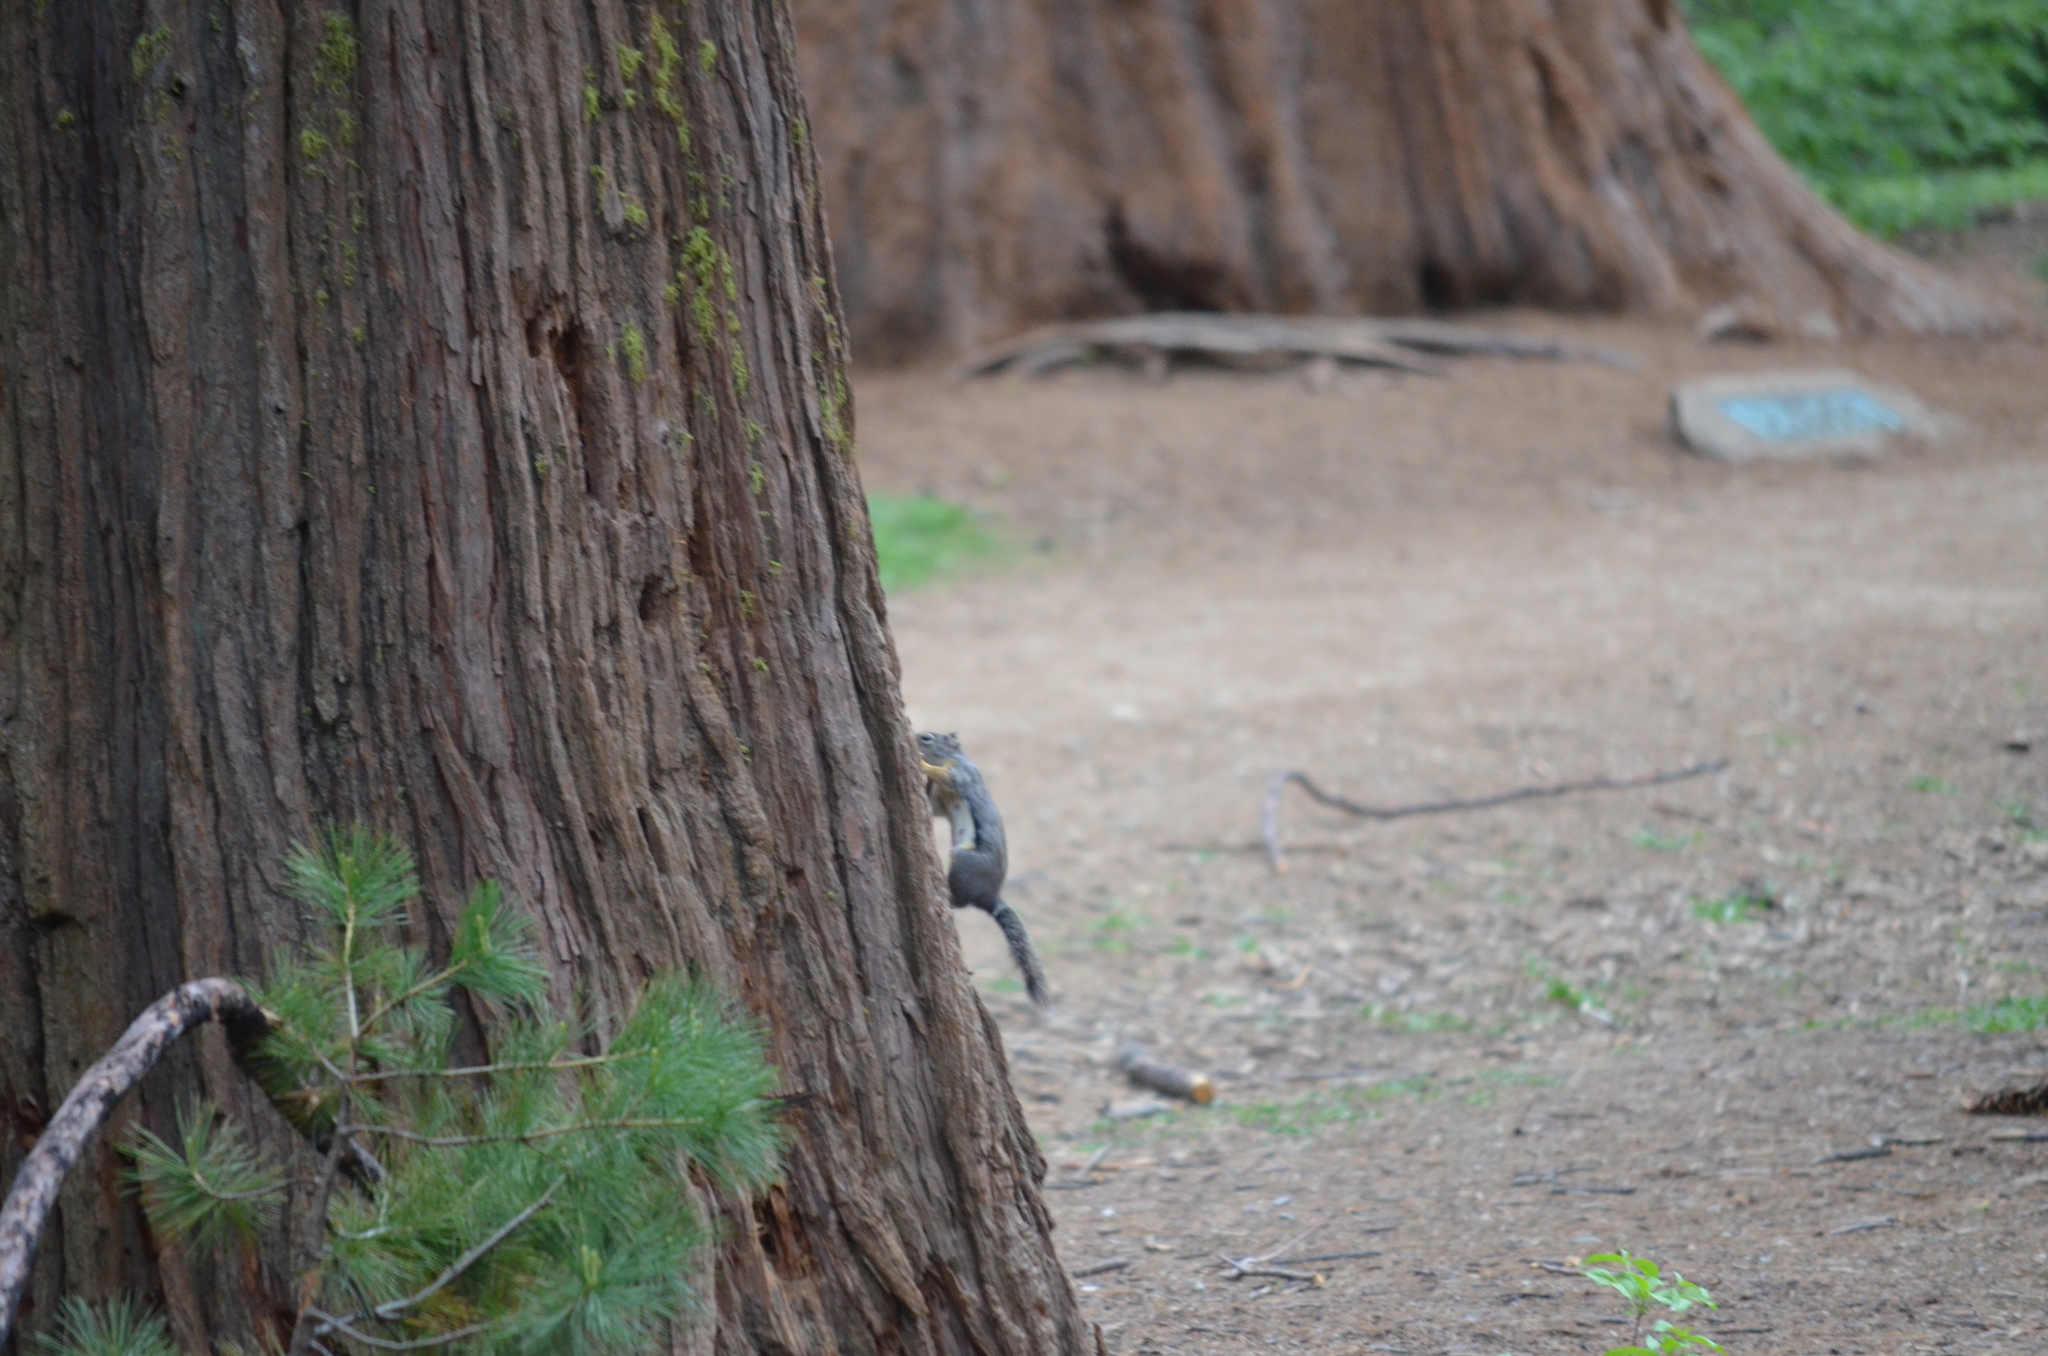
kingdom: Animalia
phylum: Chordata
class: Mammalia
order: Rodentia
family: Sciuridae
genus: Tamiasciurus
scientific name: Tamiasciurus douglasii
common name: Douglas's squirrel
